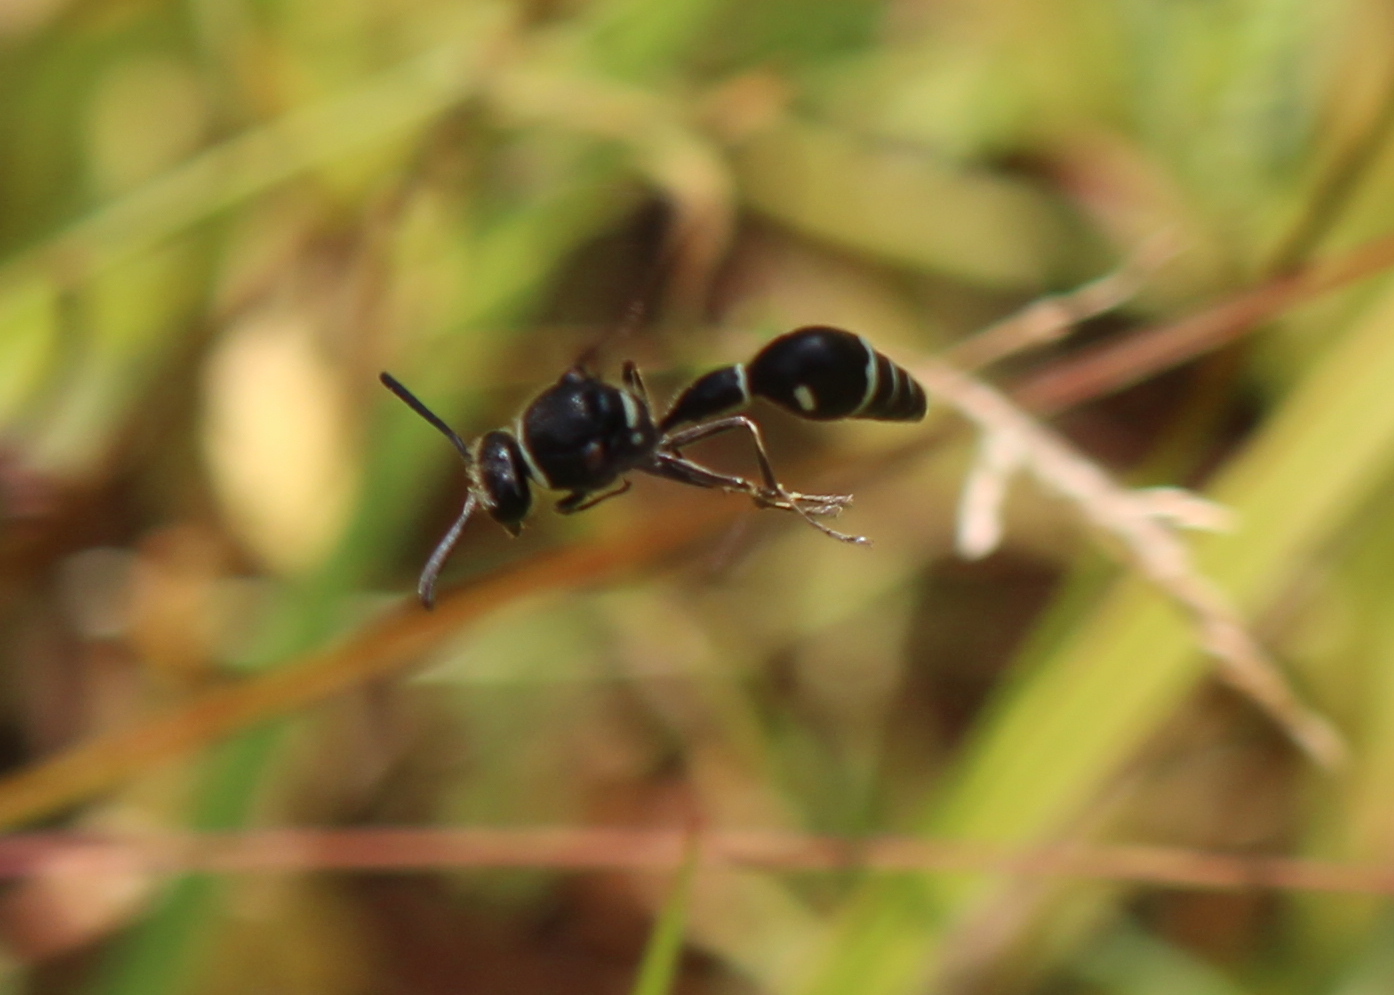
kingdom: Animalia
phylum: Arthropoda
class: Insecta
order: Hymenoptera
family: Vespidae
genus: Eumenes
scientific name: Eumenes fraternus
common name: Fraternal potter wasp
